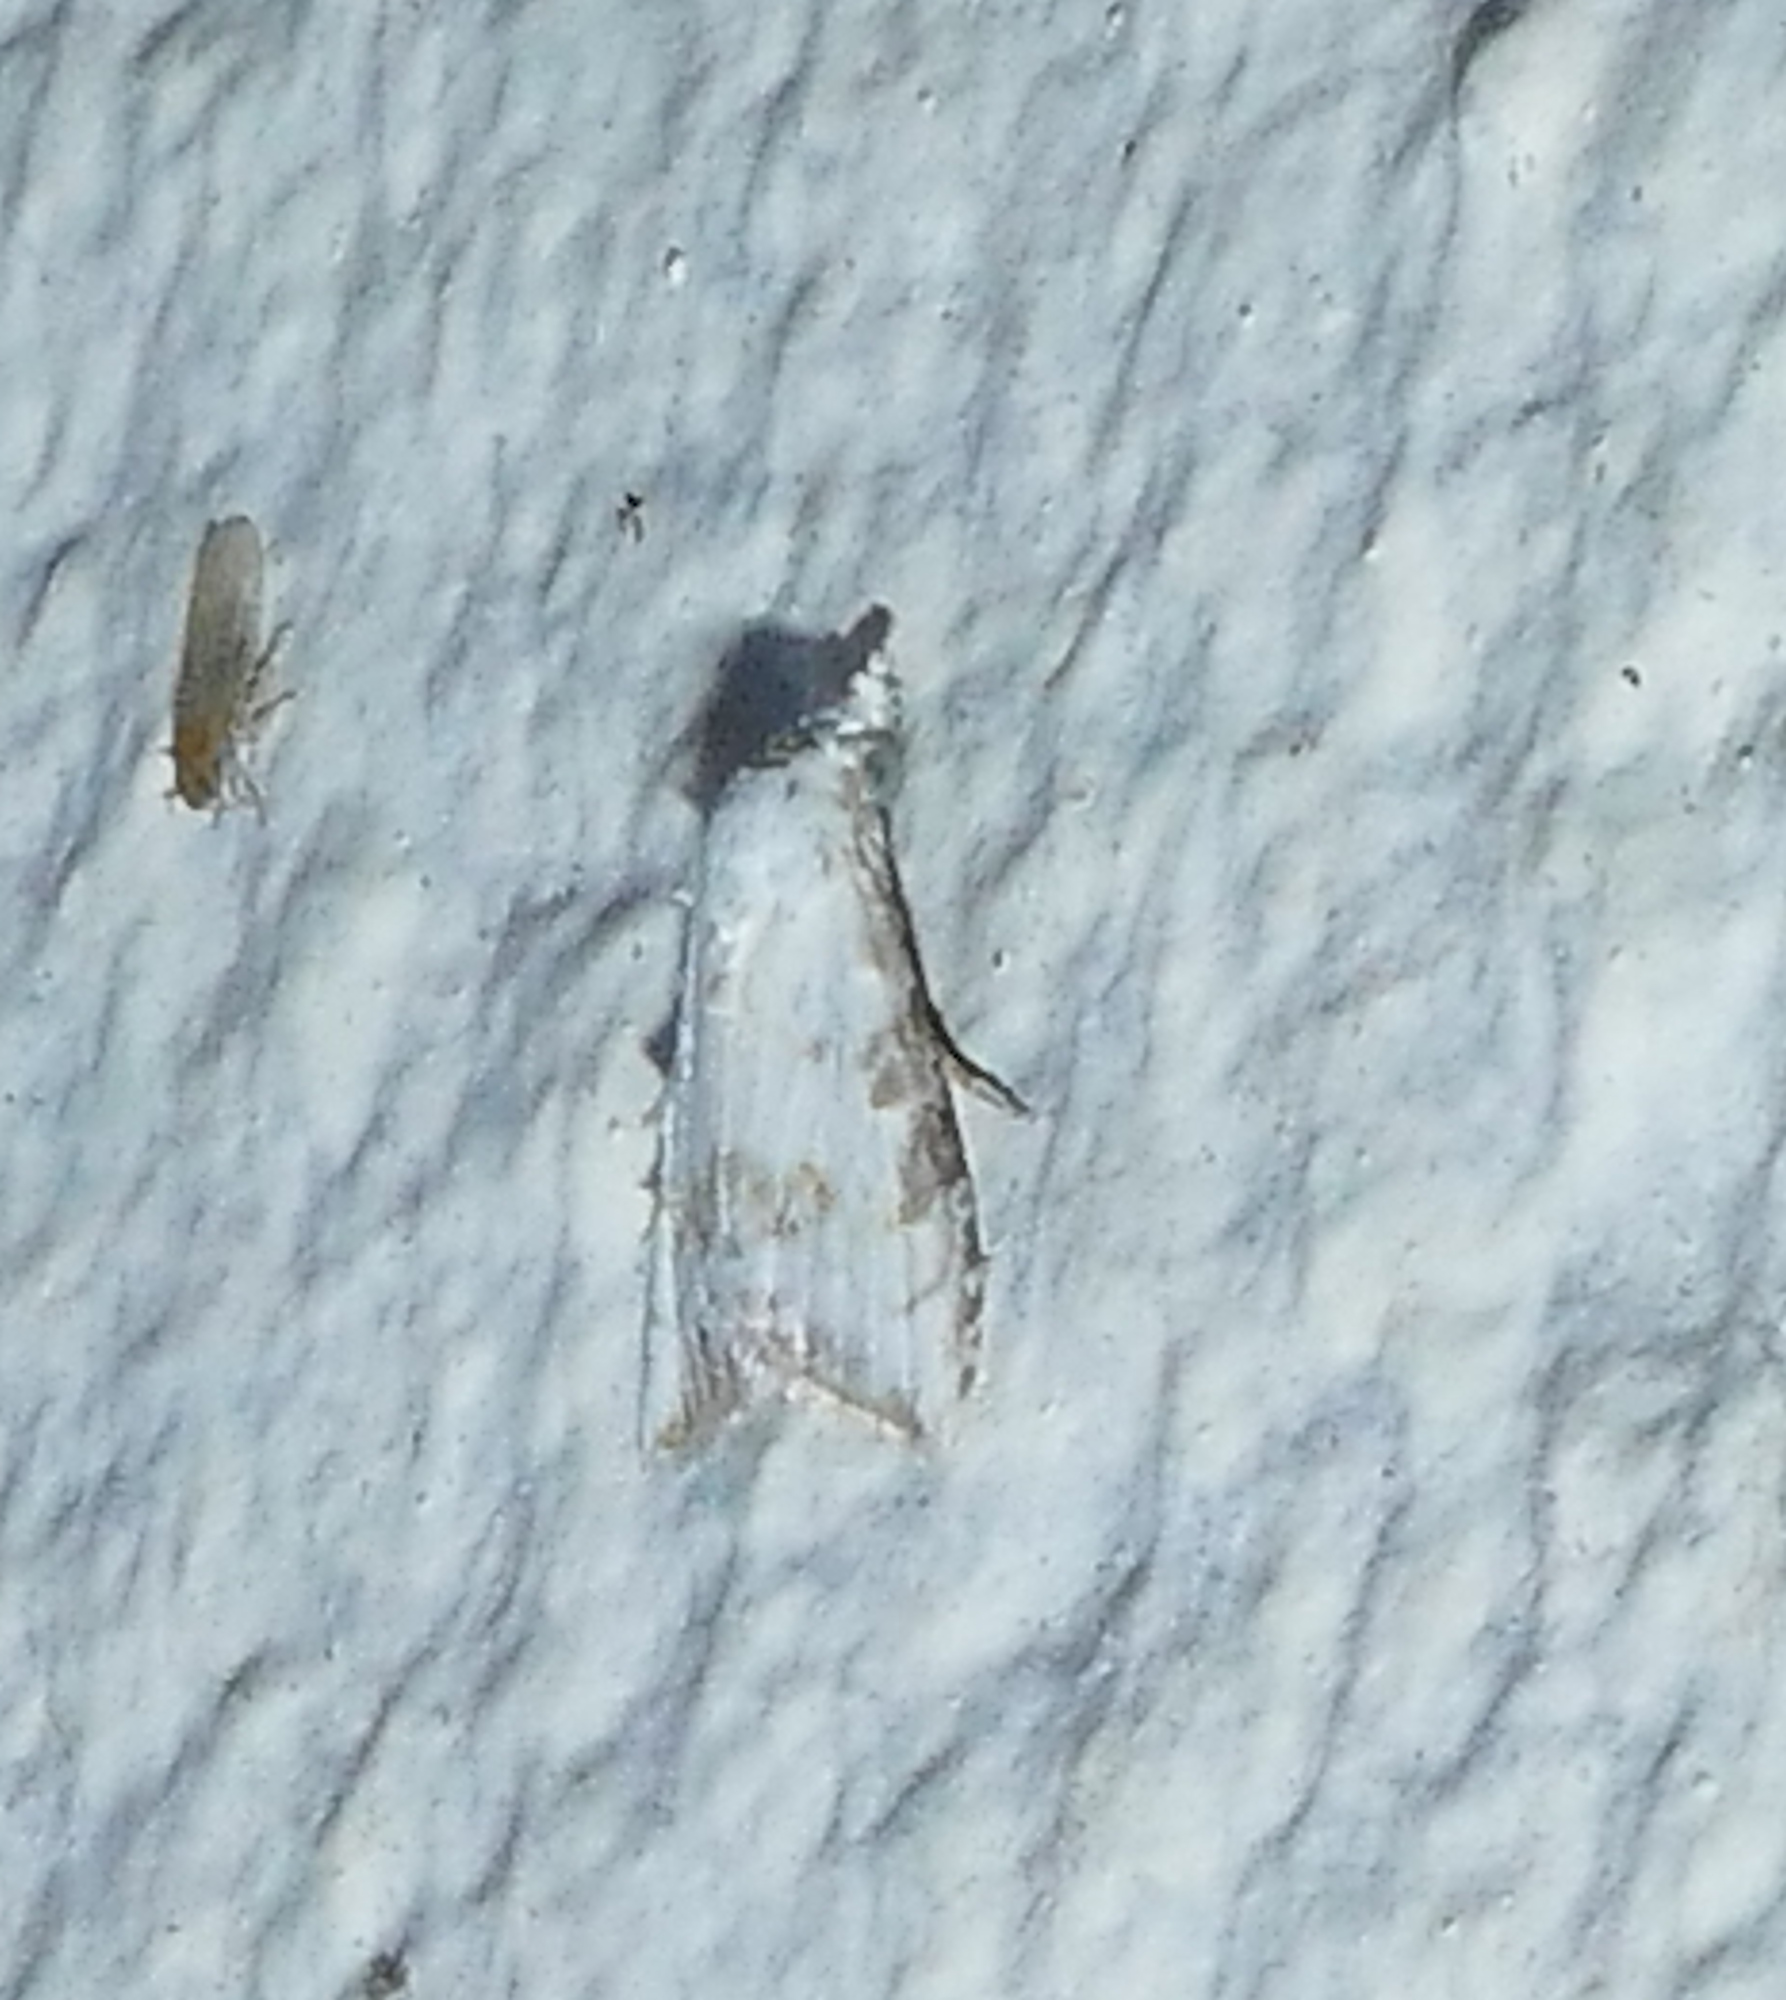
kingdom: Animalia
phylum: Arthropoda
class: Insecta
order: Lepidoptera
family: Nolidae
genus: Nola
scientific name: Nola cereella
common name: Sorghum webworm moth
